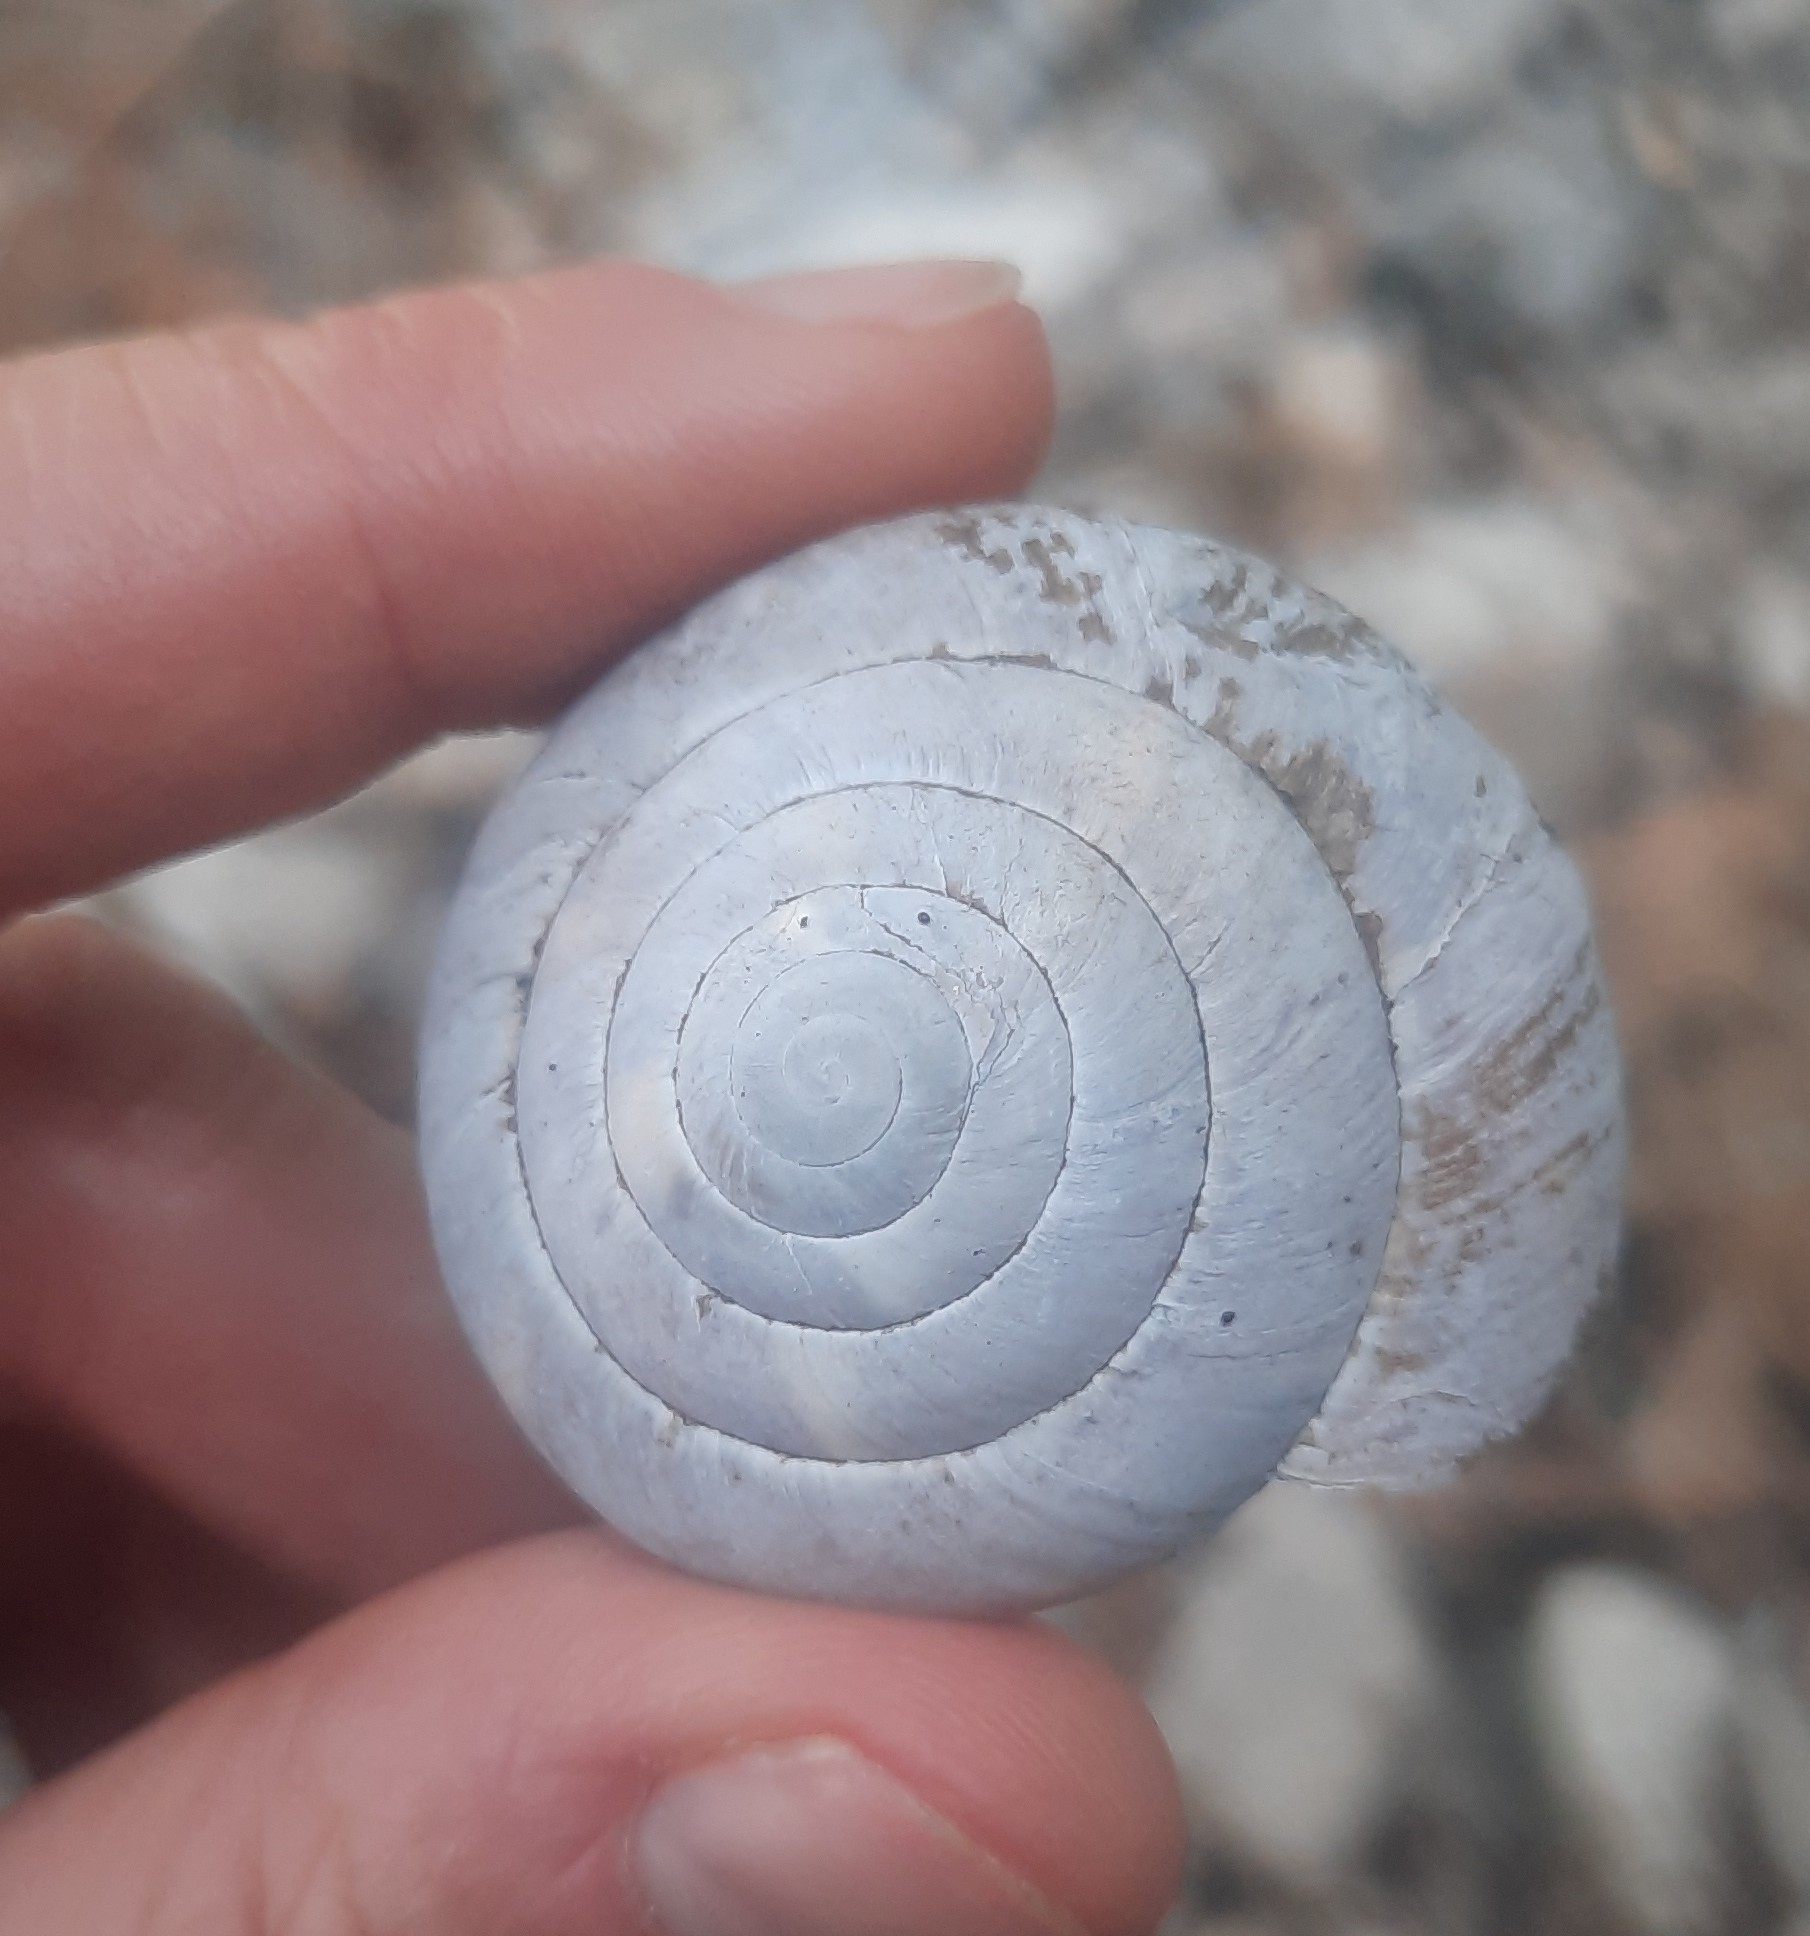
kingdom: Animalia
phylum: Mollusca
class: Gastropoda
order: Stylommatophora
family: Zonitidae
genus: Zonites
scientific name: Zonites graecus
